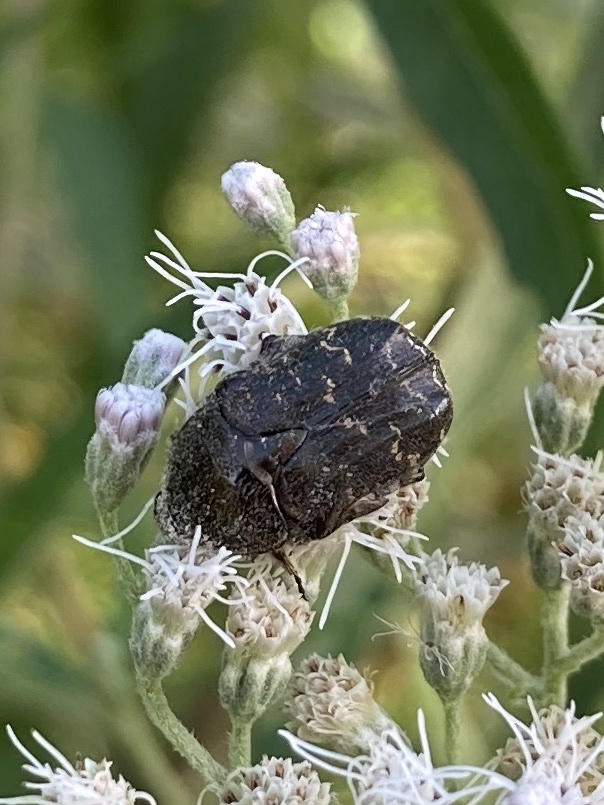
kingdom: Animalia
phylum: Arthropoda
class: Insecta
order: Coleoptera
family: Scarabaeidae
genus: Euphoria
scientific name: Euphoria sepulcralis
